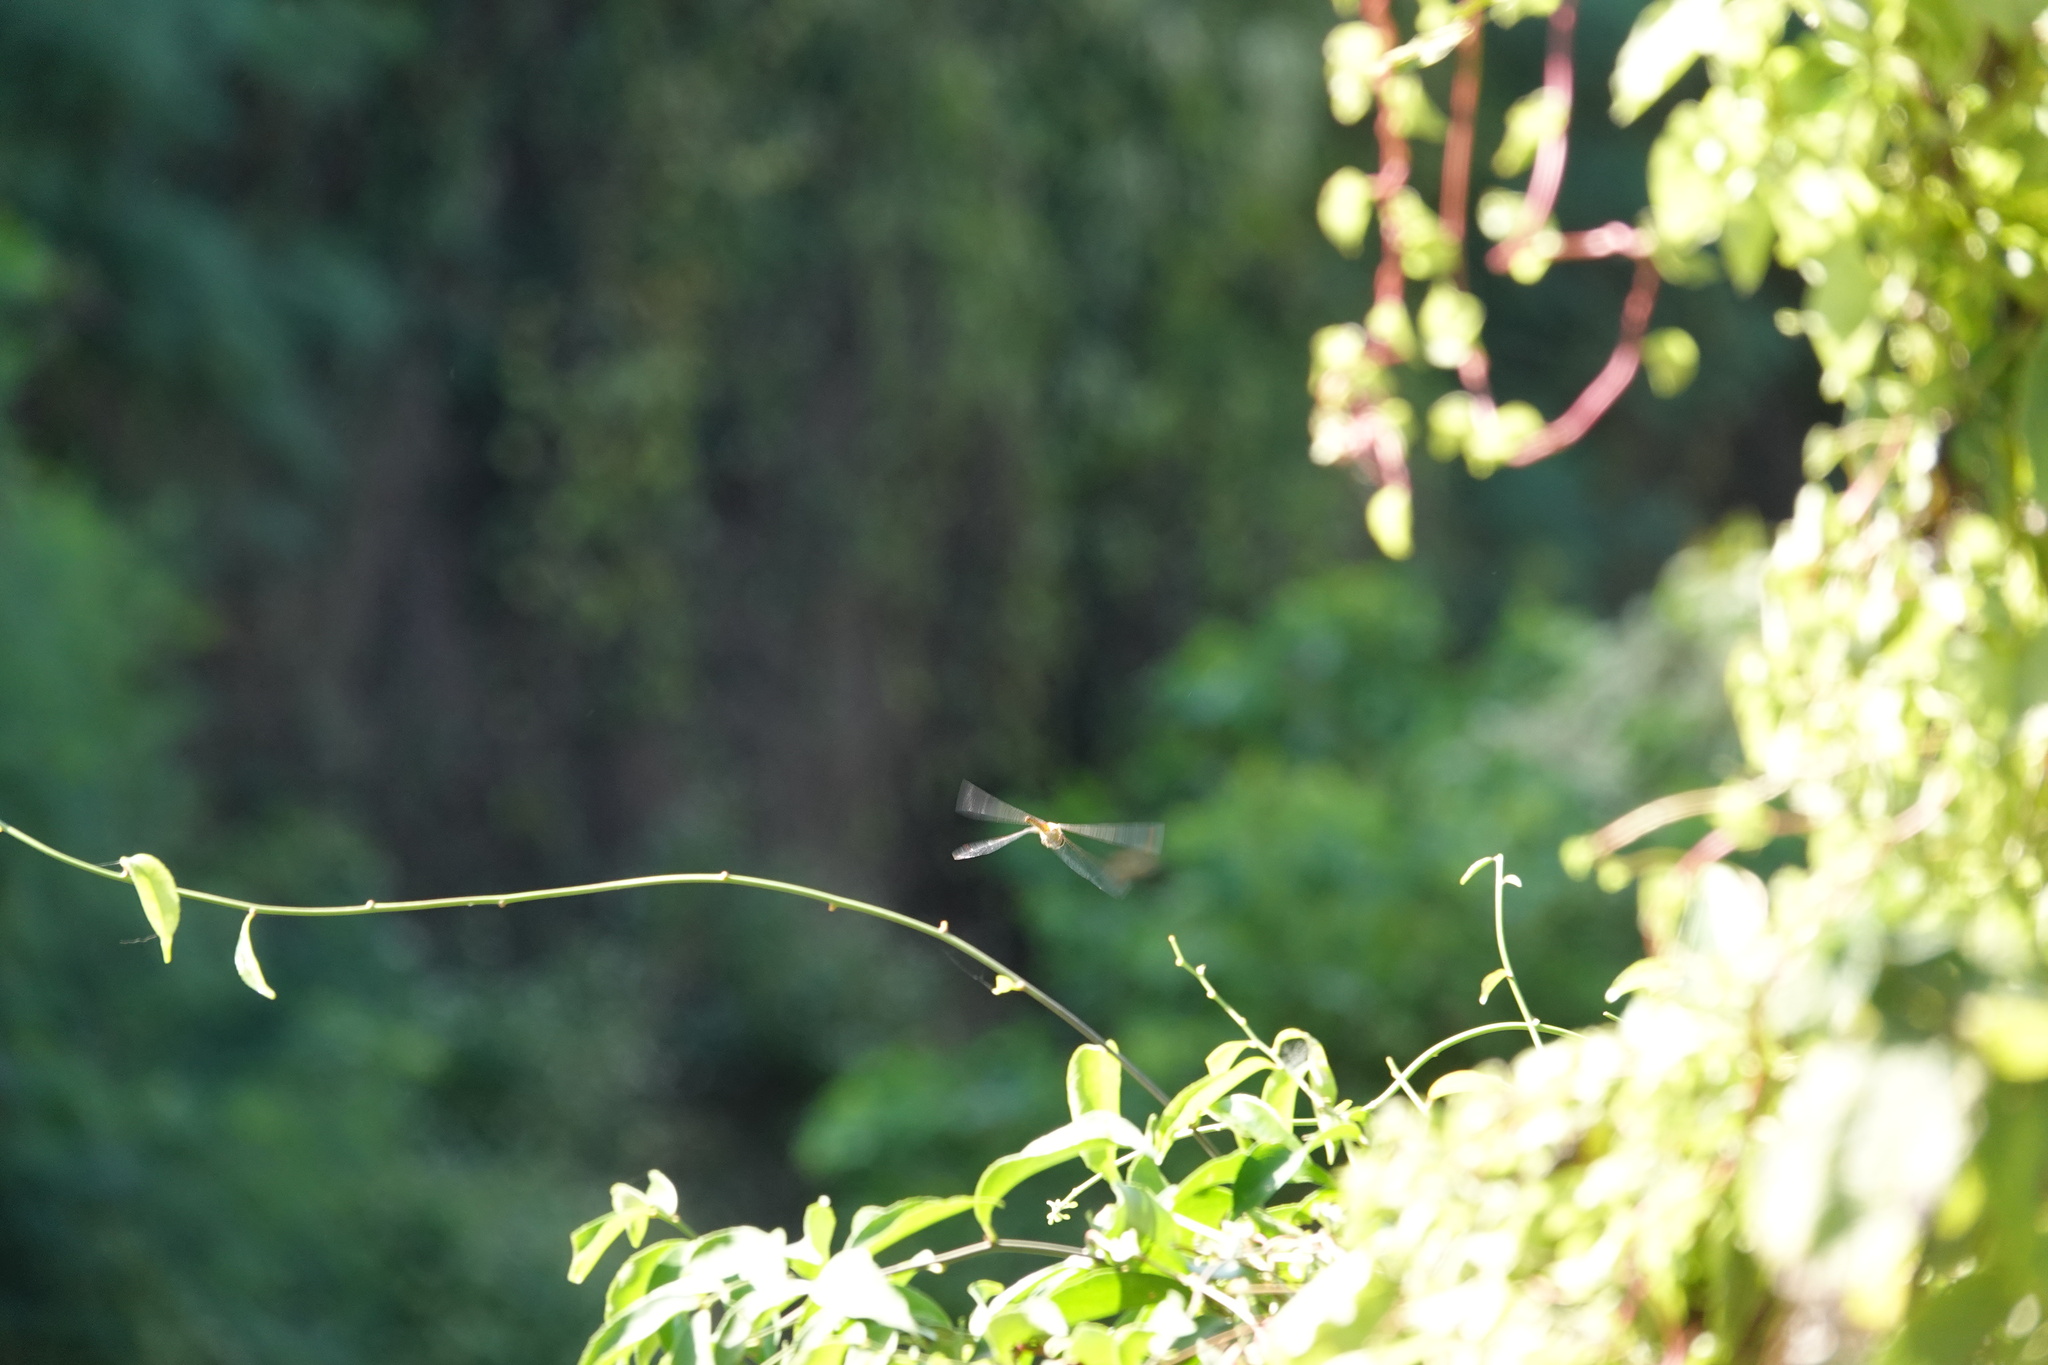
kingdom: Animalia
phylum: Arthropoda
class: Insecta
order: Odonata
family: Libellulidae
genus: Pantala
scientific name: Pantala flavescens
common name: Wandering glider
